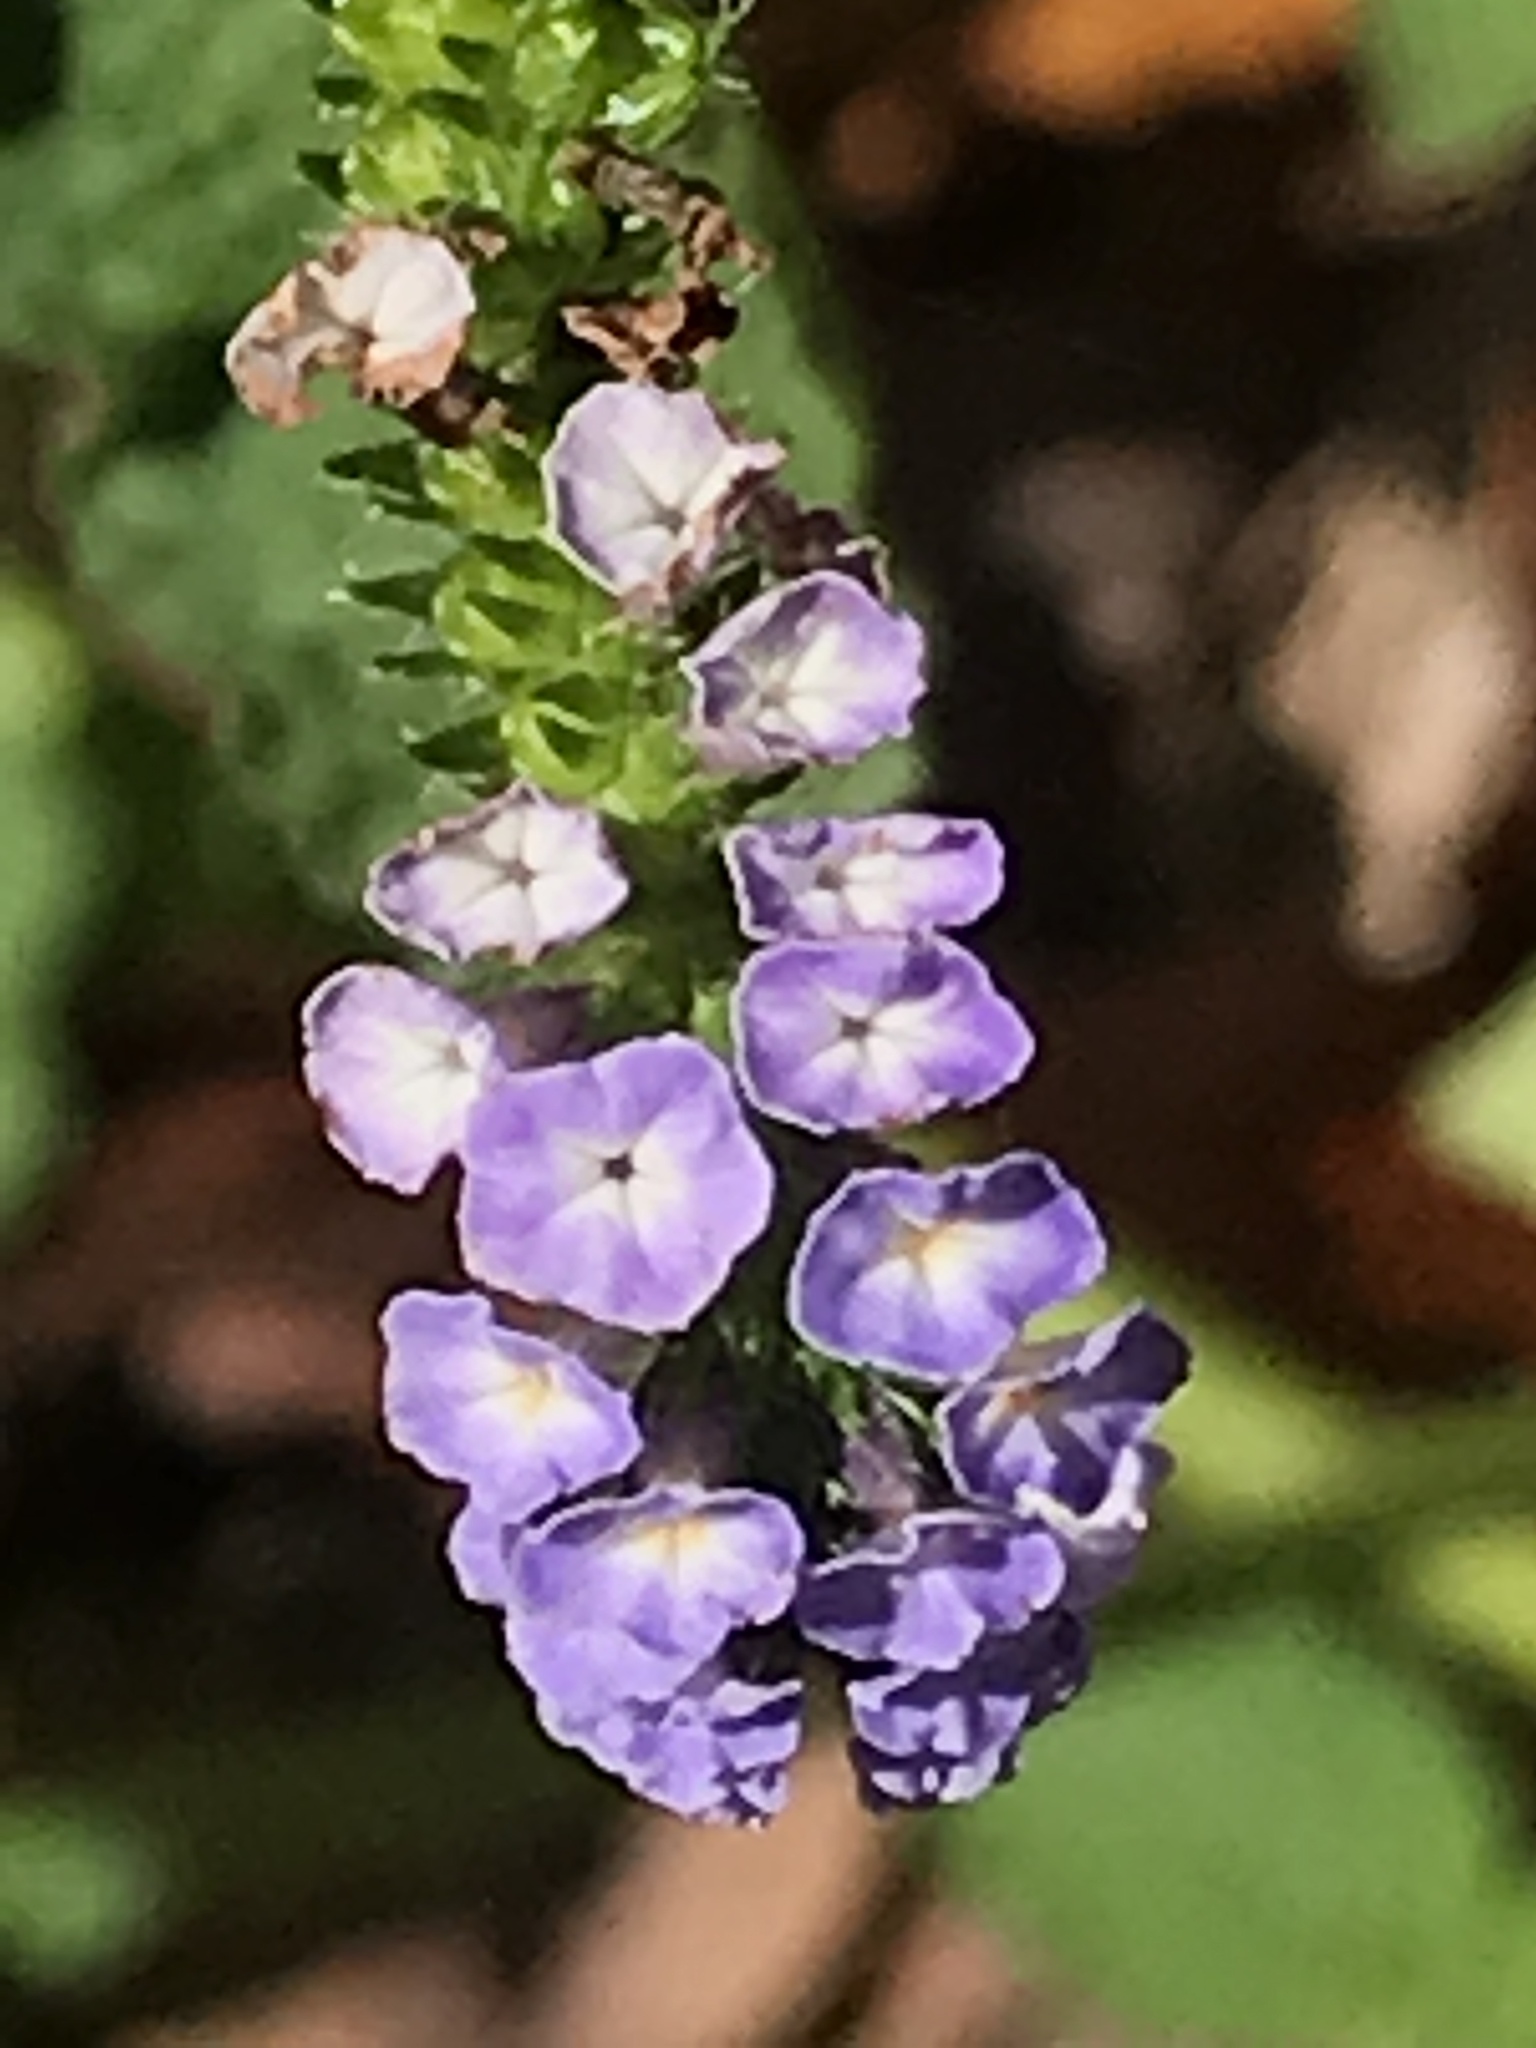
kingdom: Plantae
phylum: Tracheophyta
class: Magnoliopsida
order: Boraginales
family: Heliotropiaceae
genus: Heliotropium
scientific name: Heliotropium indicum
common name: Indian heliotrope
